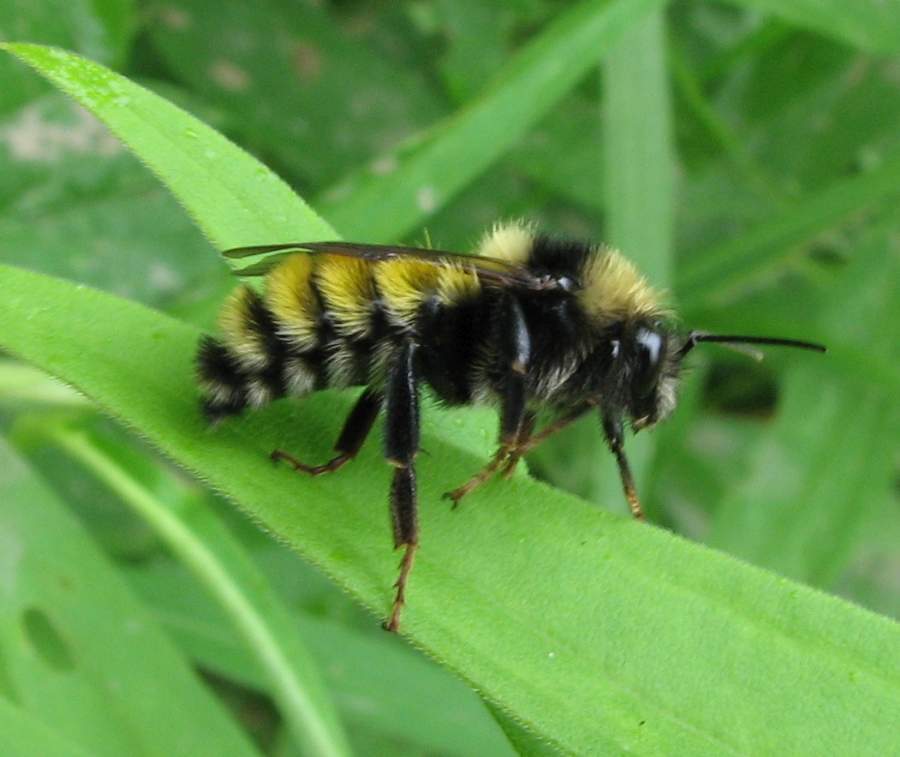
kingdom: Animalia
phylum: Arthropoda
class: Insecta
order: Hymenoptera
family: Apidae
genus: Bombus
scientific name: Bombus borealis
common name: Northern amber bumble bee
